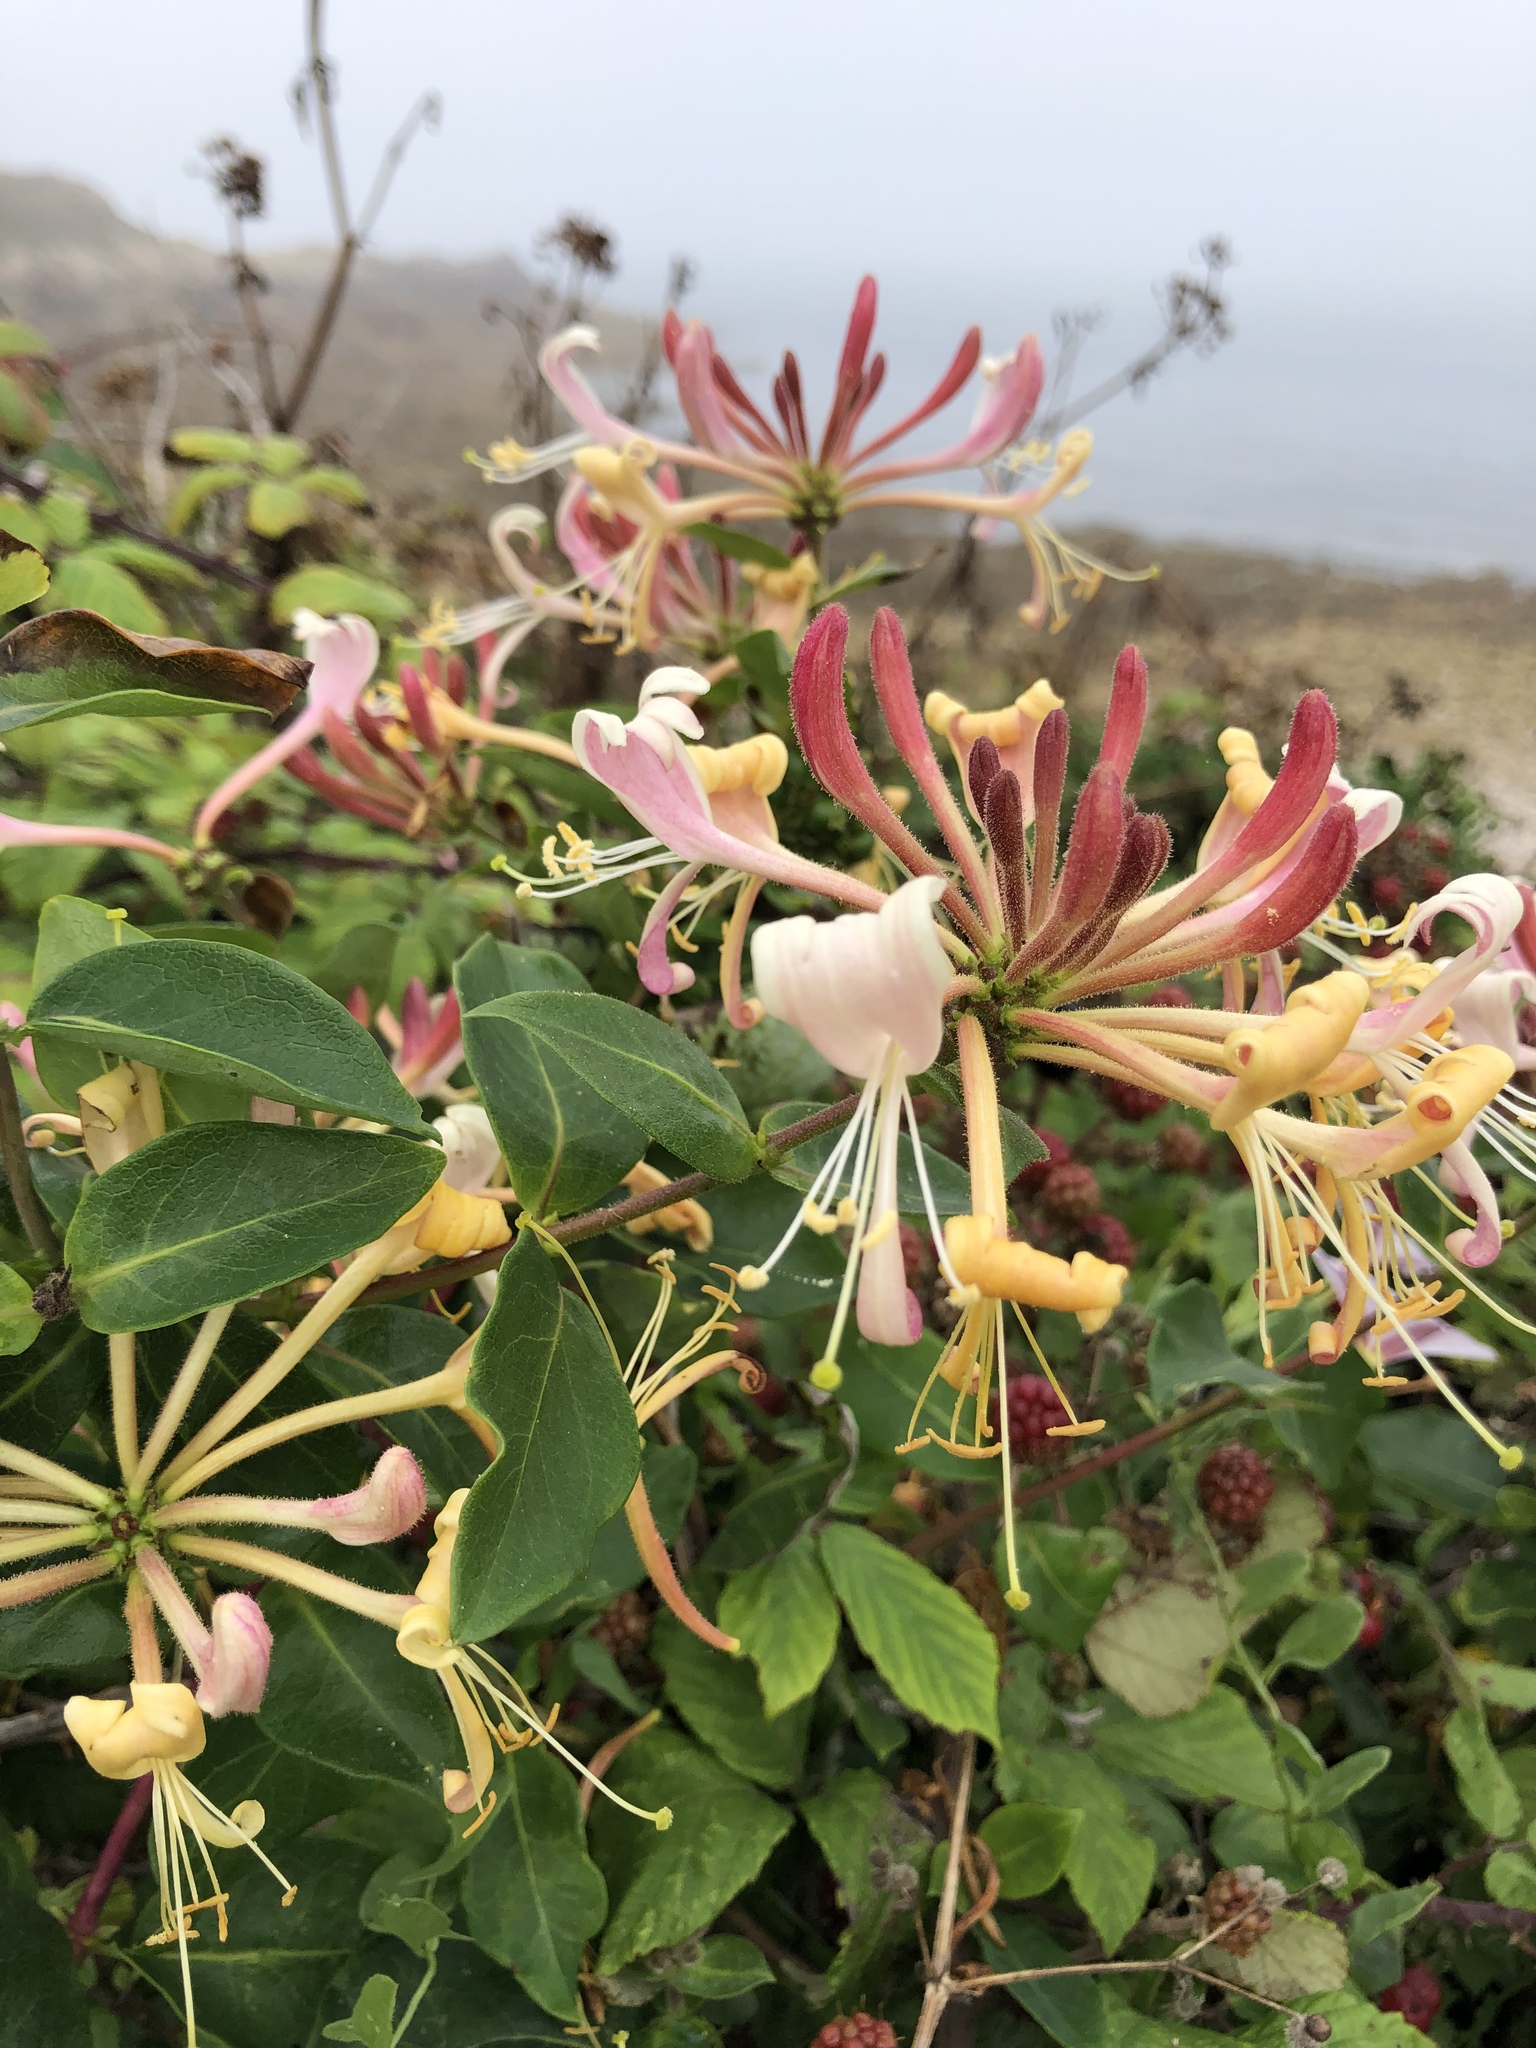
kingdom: Plantae
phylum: Tracheophyta
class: Magnoliopsida
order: Dipsacales
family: Caprifoliaceae
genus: Lonicera
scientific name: Lonicera periclymenum
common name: European honeysuckle
